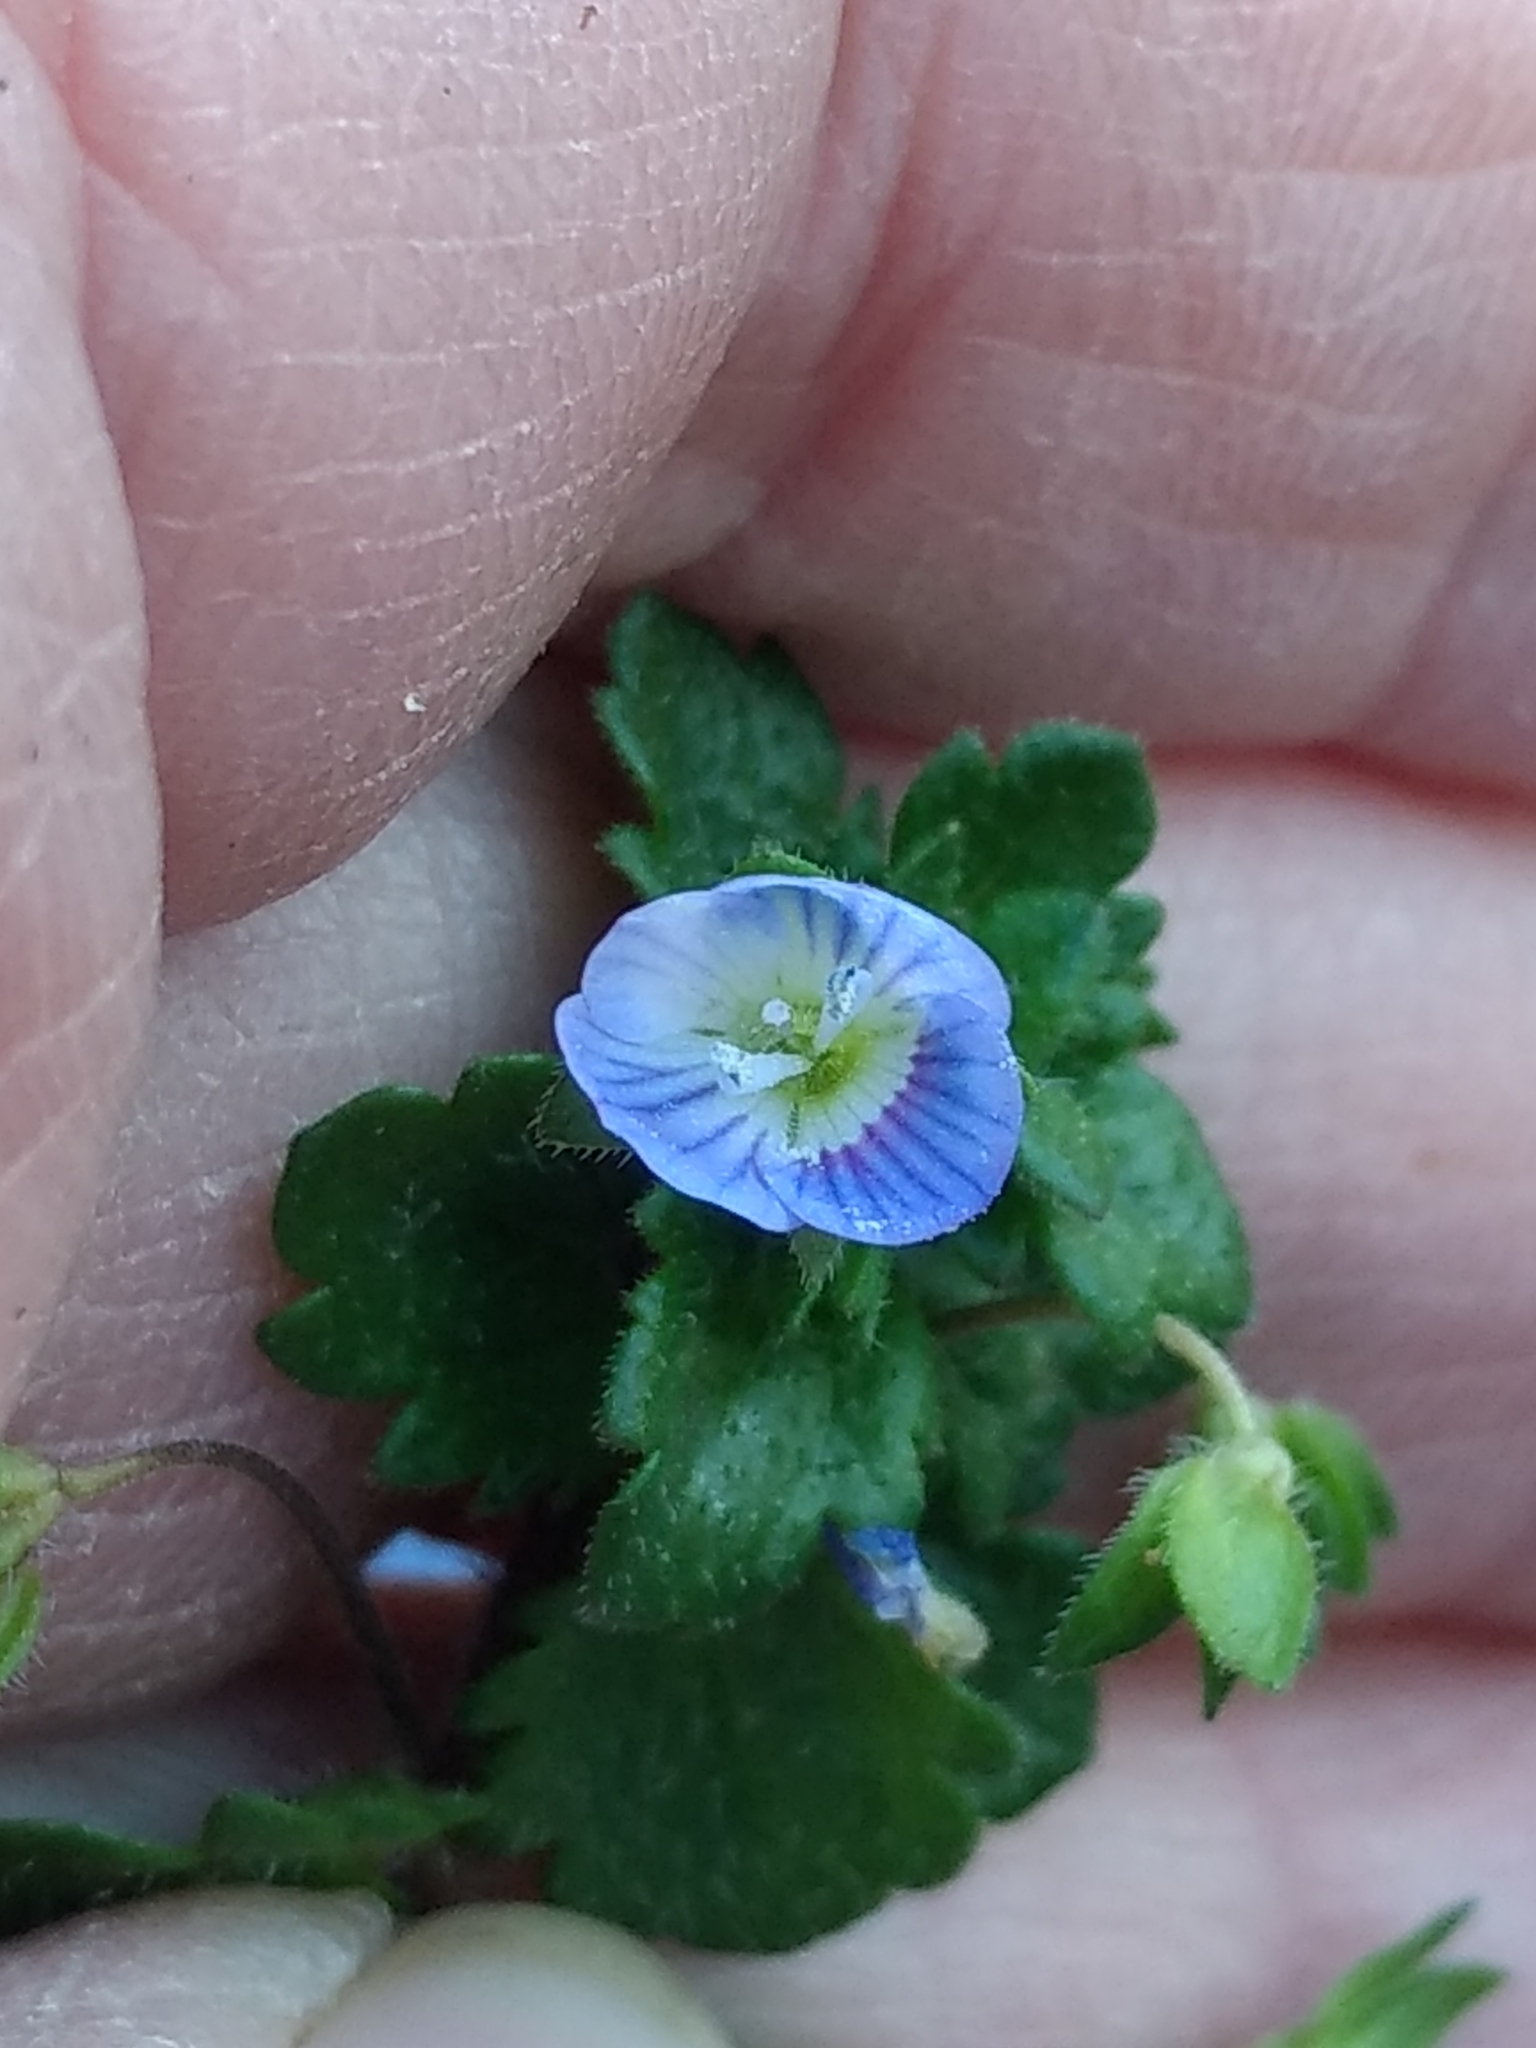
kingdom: Plantae
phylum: Tracheophyta
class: Magnoliopsida
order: Lamiales
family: Plantaginaceae
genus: Veronica
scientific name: Veronica persica
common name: Common field-speedwell
